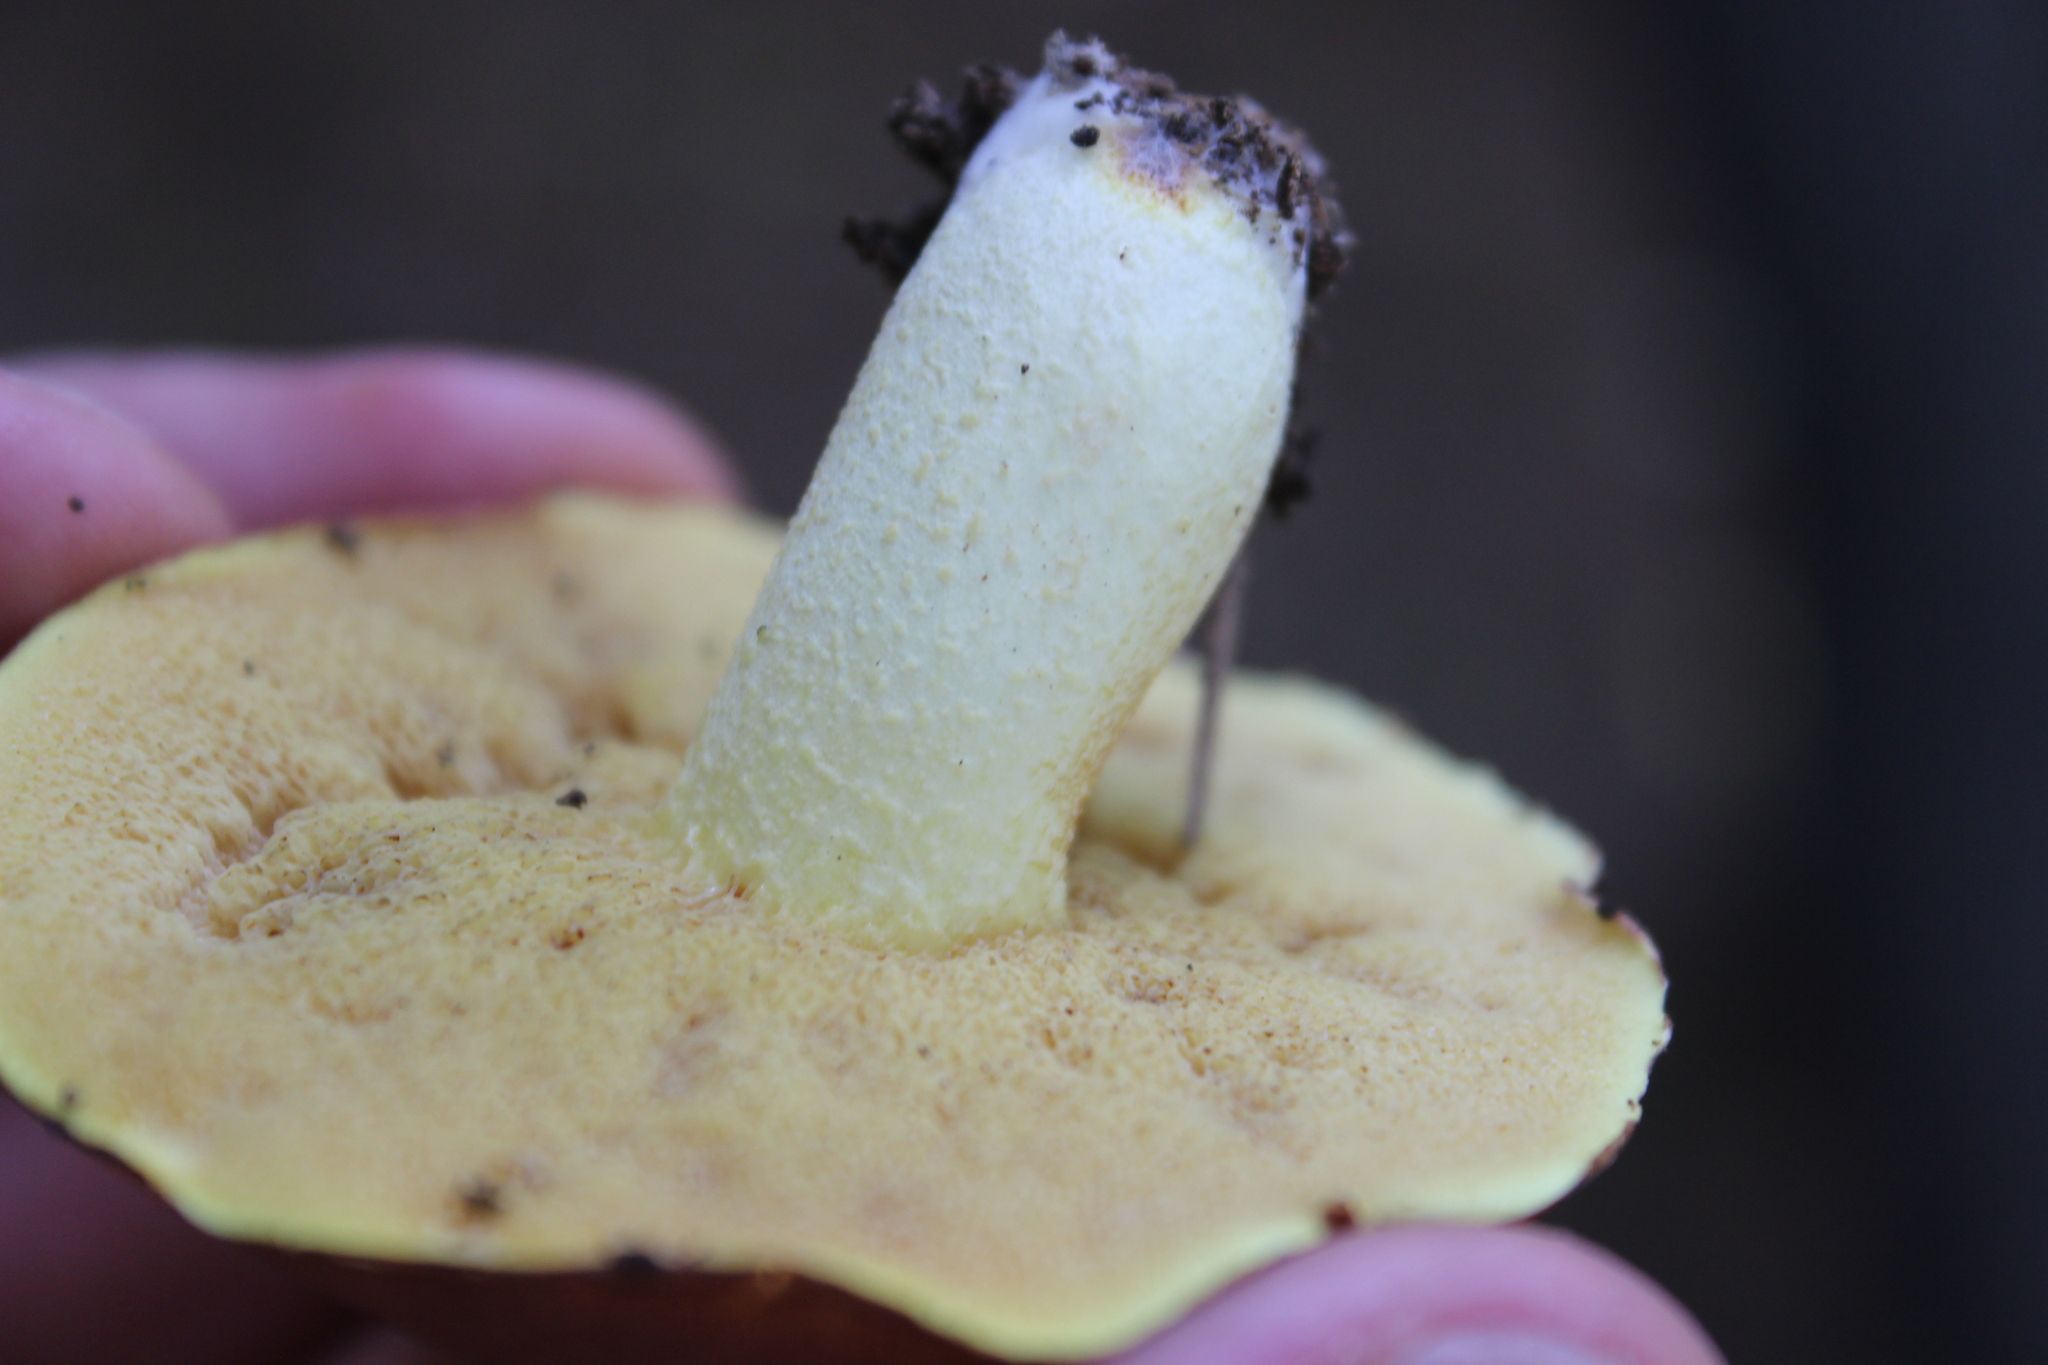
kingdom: Fungi
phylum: Basidiomycota
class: Agaricomycetes
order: Boletales
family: Suillaceae
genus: Suillus
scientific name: Suillus granulatus
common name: Weeping bolete
